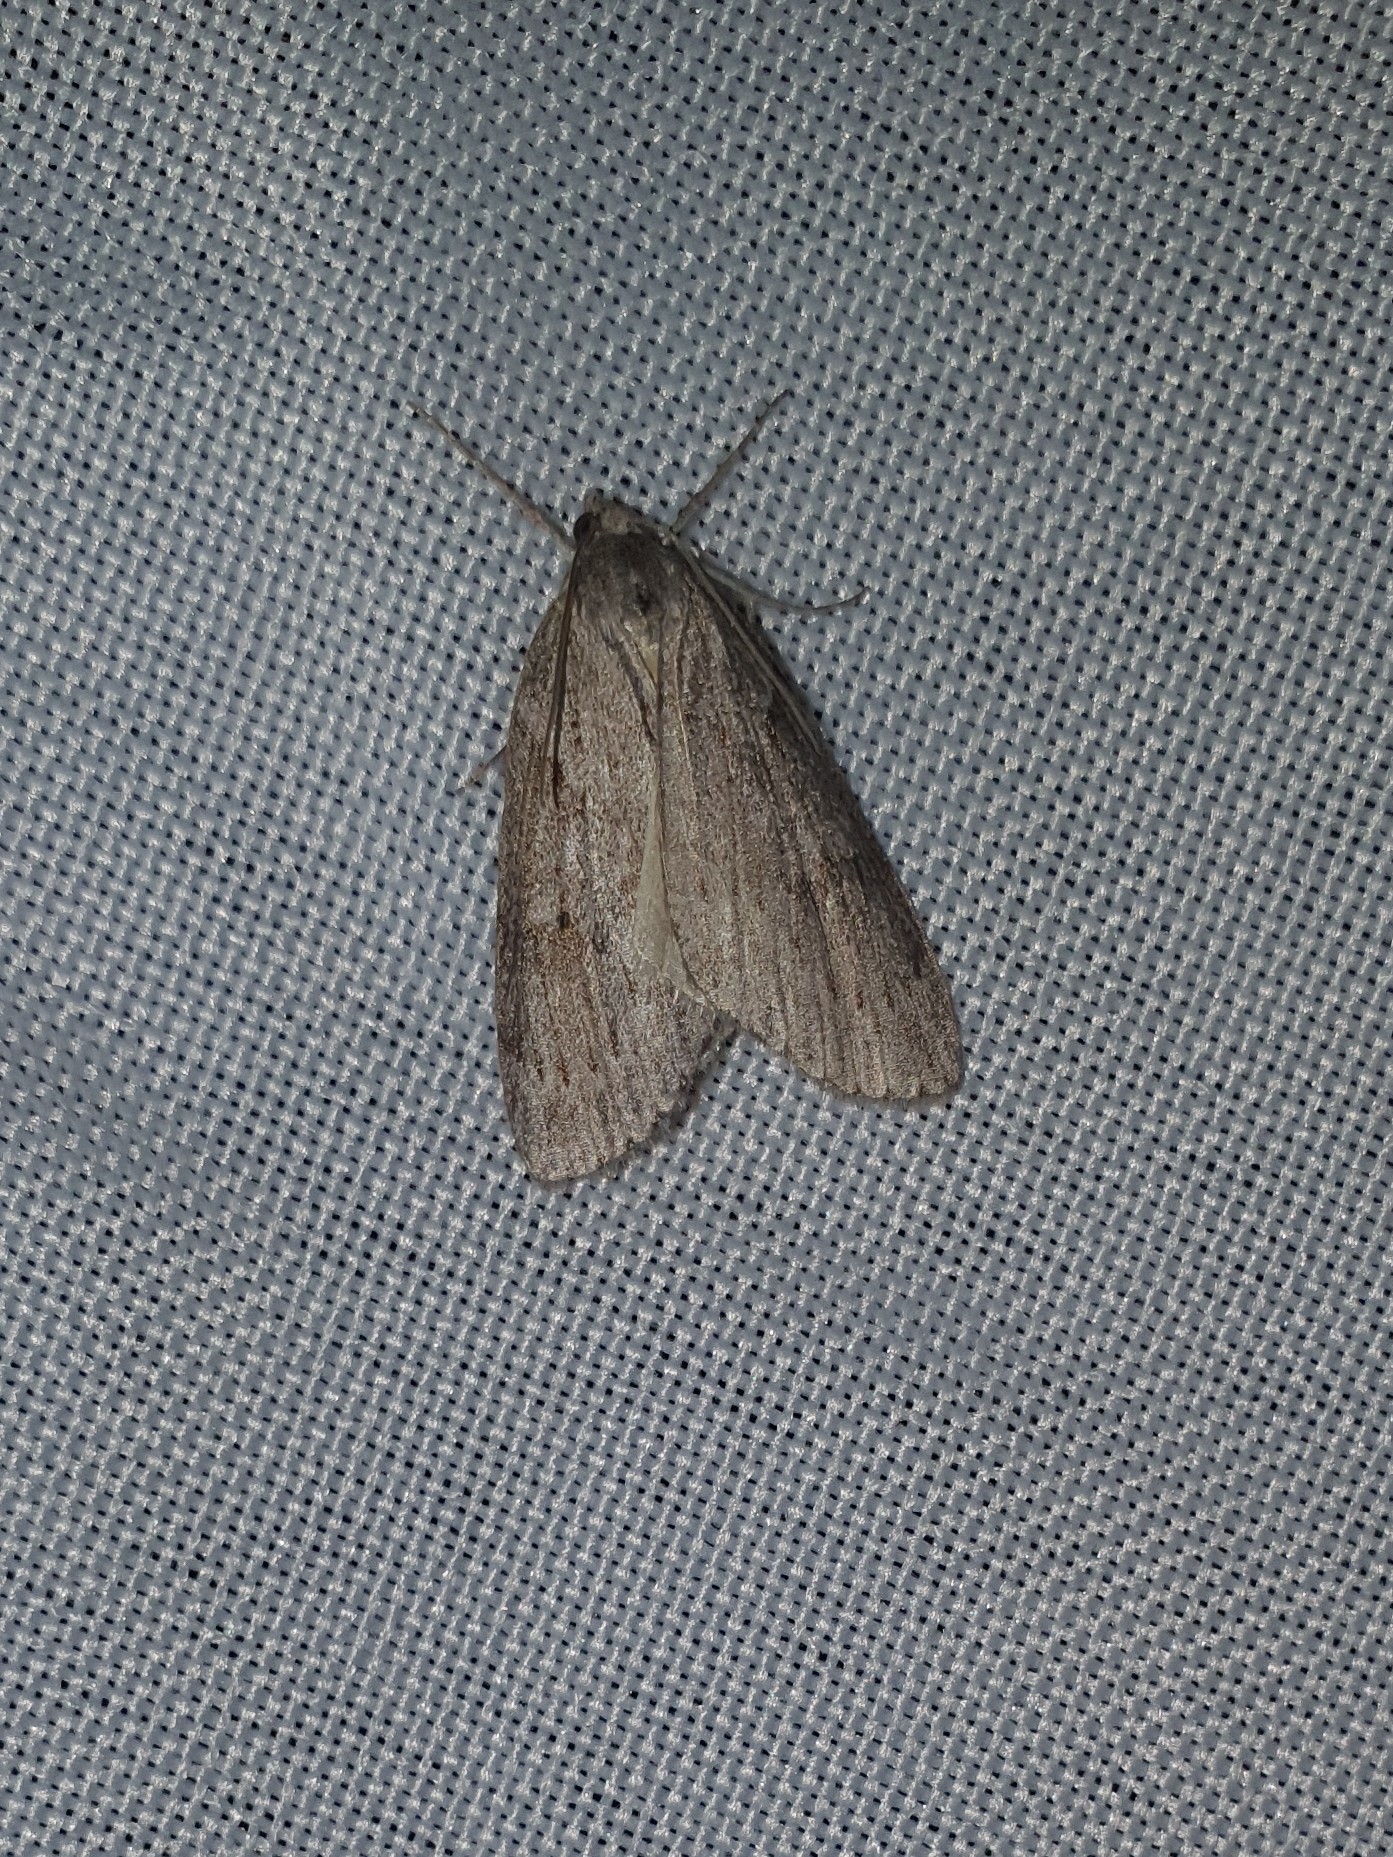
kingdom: Animalia
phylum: Arthropoda
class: Insecta
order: Lepidoptera
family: Geometridae
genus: Pachycnemia
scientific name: Pachycnemia hippocastanaria
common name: Horse chestnut
